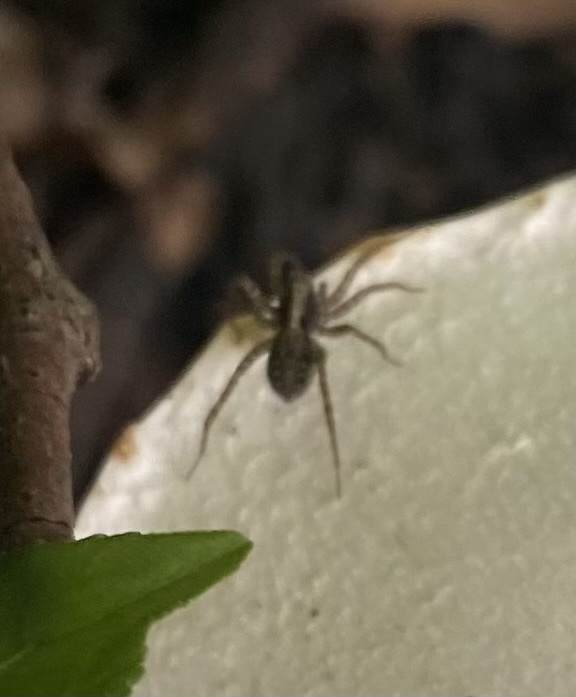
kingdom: Animalia
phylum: Arthropoda
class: Arachnida
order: Araneae
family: Lycosidae
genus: Pardosa
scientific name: Pardosa
